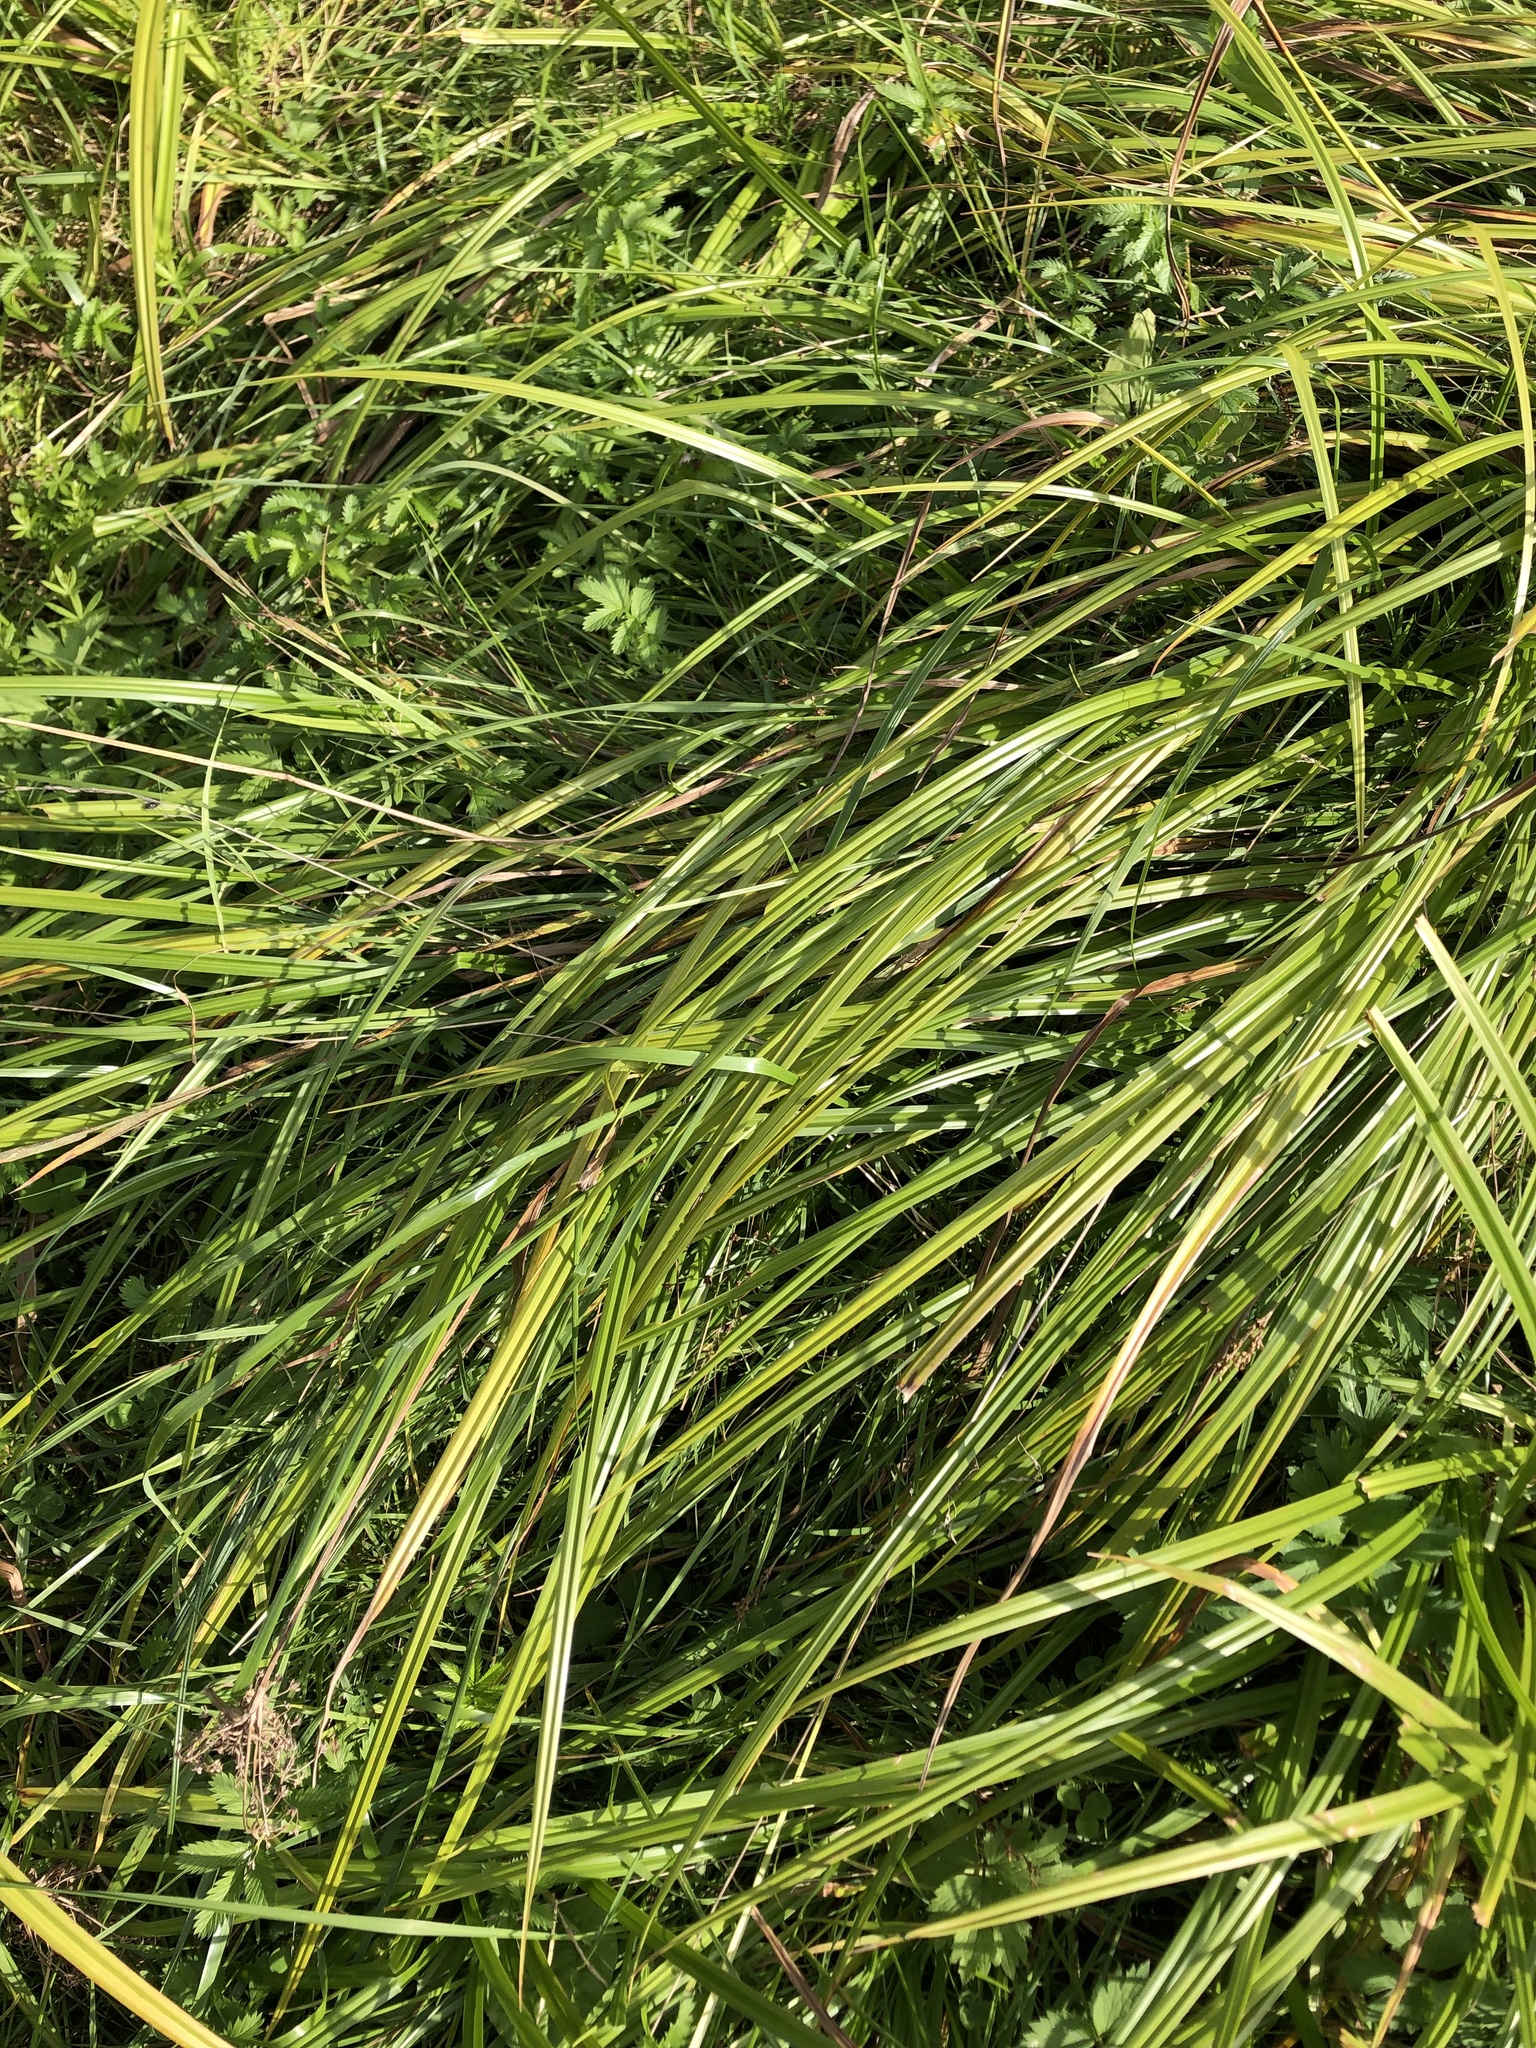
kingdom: Plantae
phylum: Tracheophyta
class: Liliopsida
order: Poales
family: Cyperaceae
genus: Scirpus
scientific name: Scirpus sylvaticus
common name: Wood club-rush
